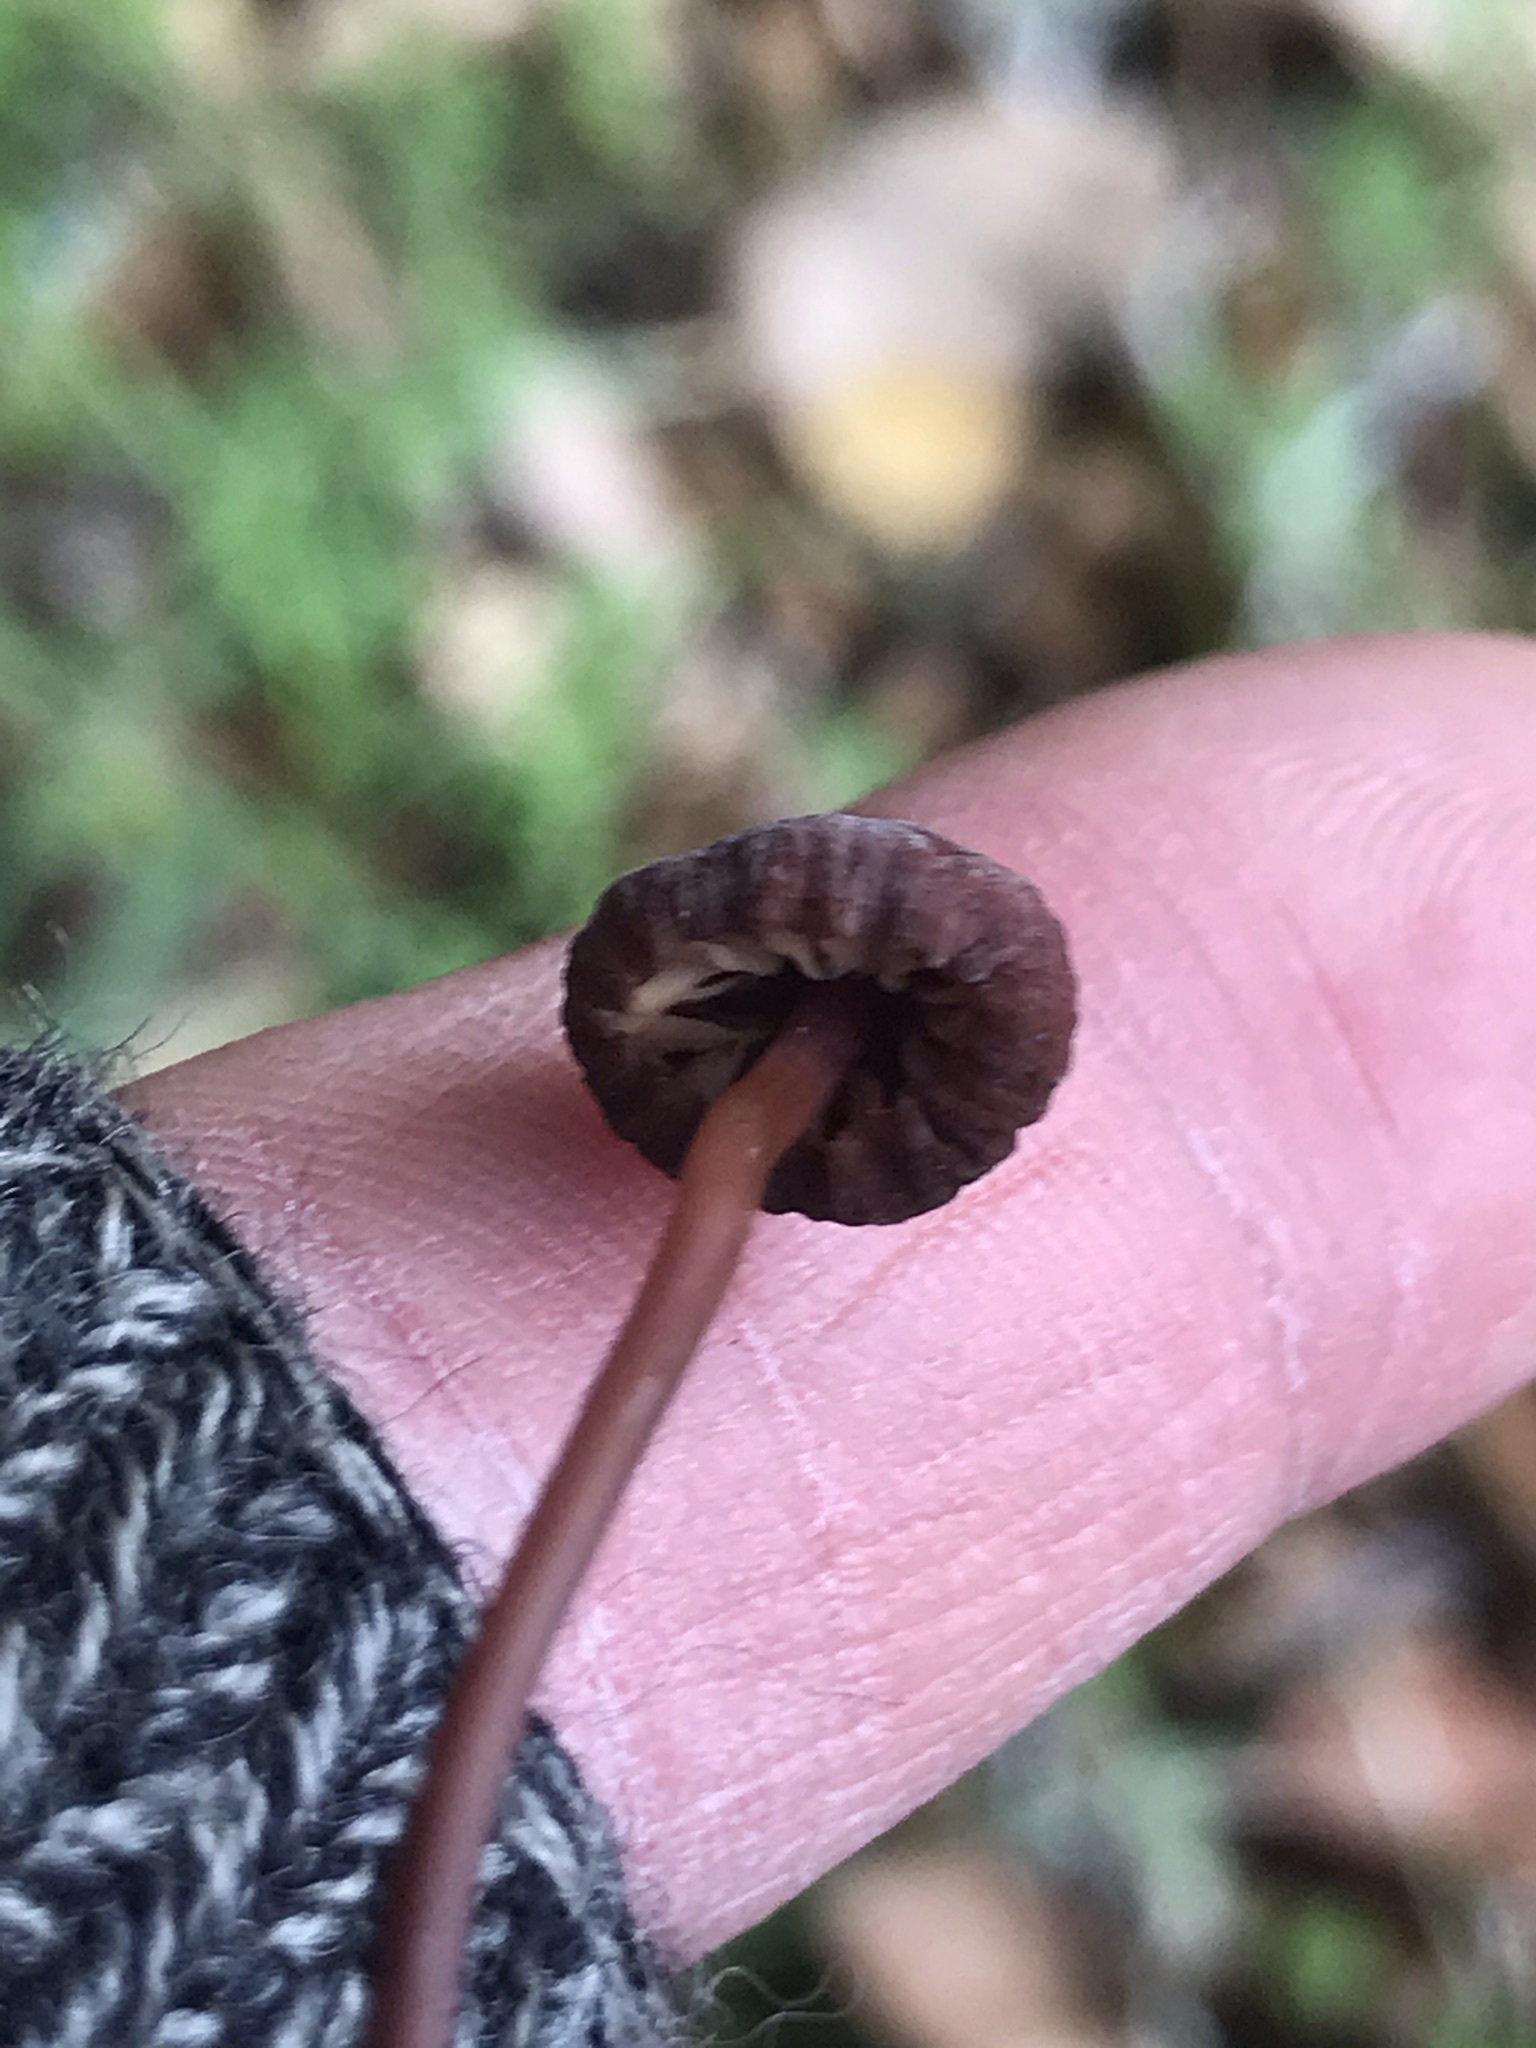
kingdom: Fungi
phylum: Basidiomycota
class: Agaricomycetes
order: Agaricales
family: Marasmiaceae
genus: Marasmius
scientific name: Marasmius plicatulus
